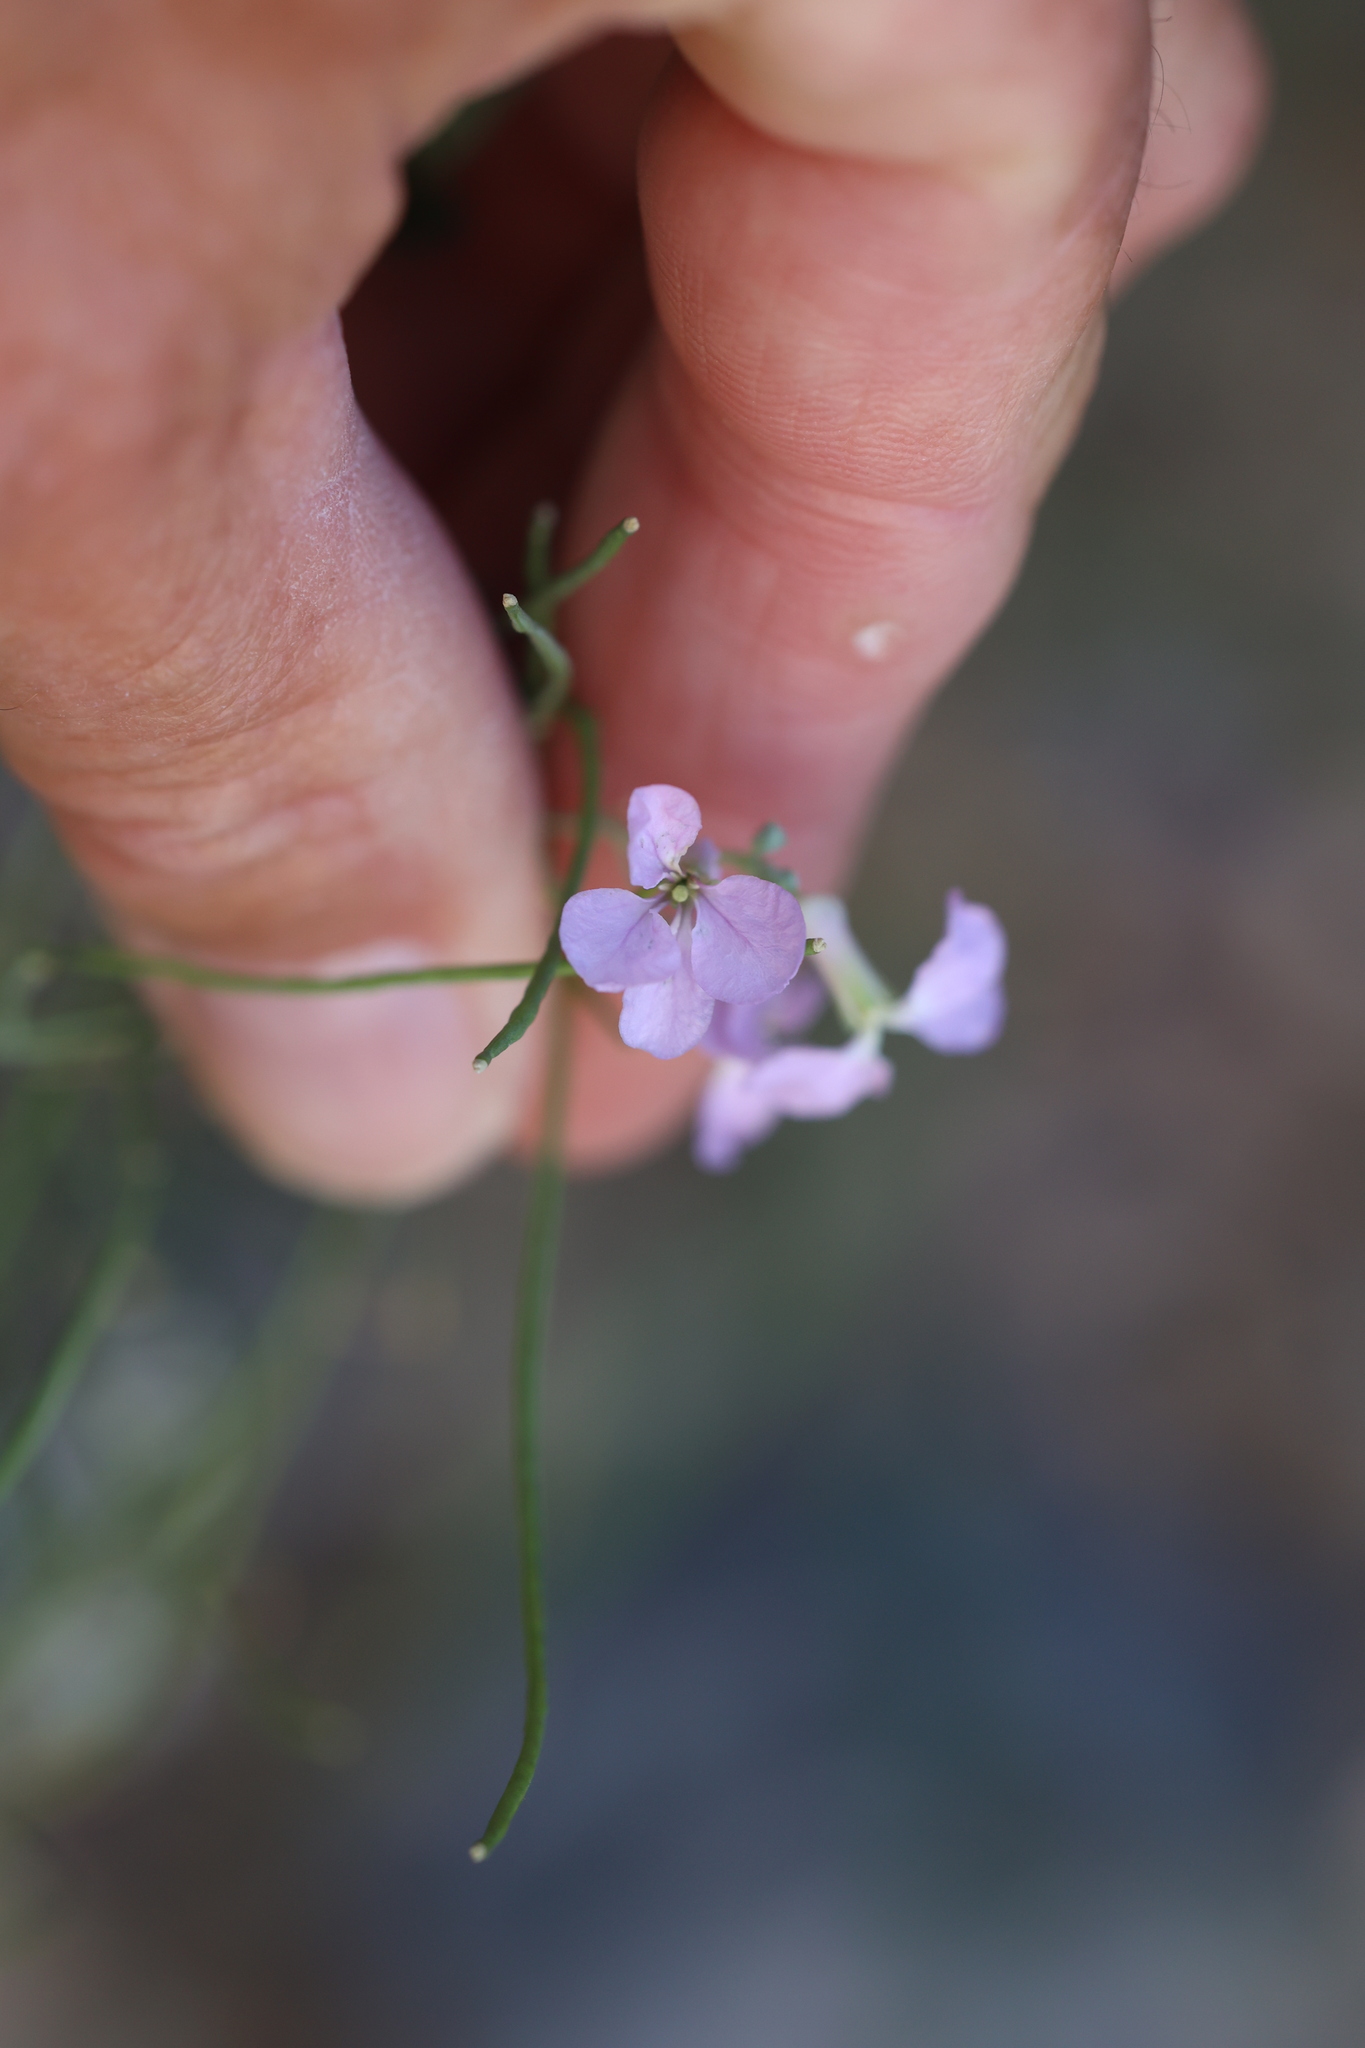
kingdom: Plantae
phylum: Tracheophyta
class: Magnoliopsida
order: Brassicales
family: Brassicaceae
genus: Hesperidanthus
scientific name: Hesperidanthus linearifolius
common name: Slim-leaf plains mustard
